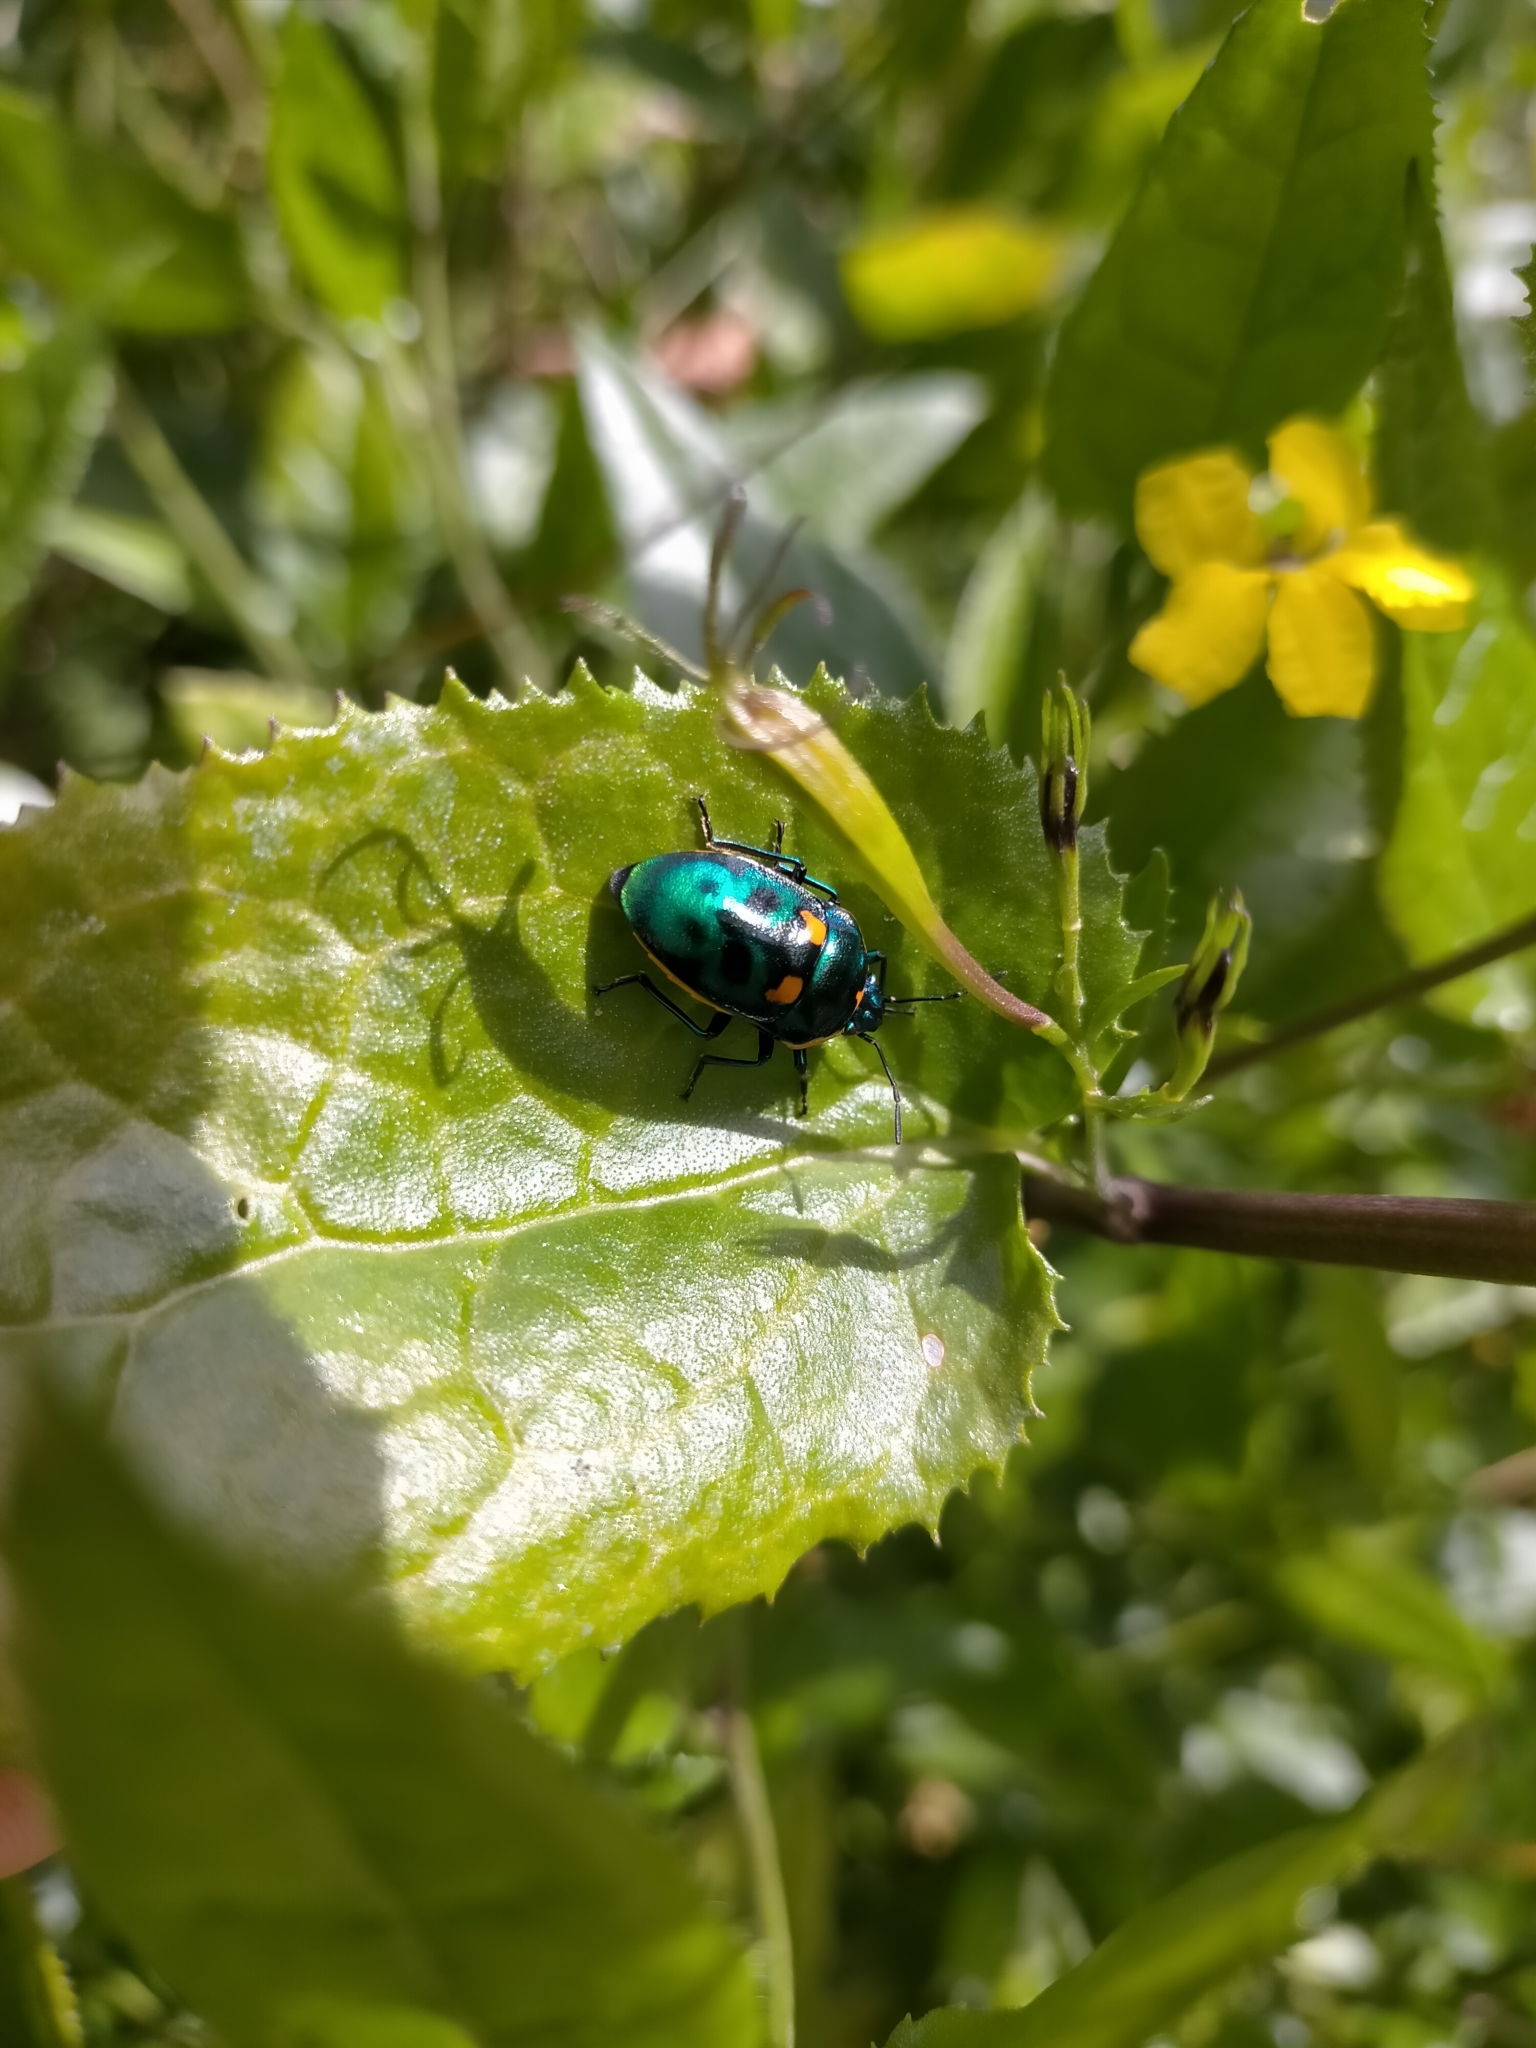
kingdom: Animalia
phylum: Arthropoda
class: Insecta
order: Hemiptera
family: Scutelleridae
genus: Scutiphora
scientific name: Scutiphora pedicellata
